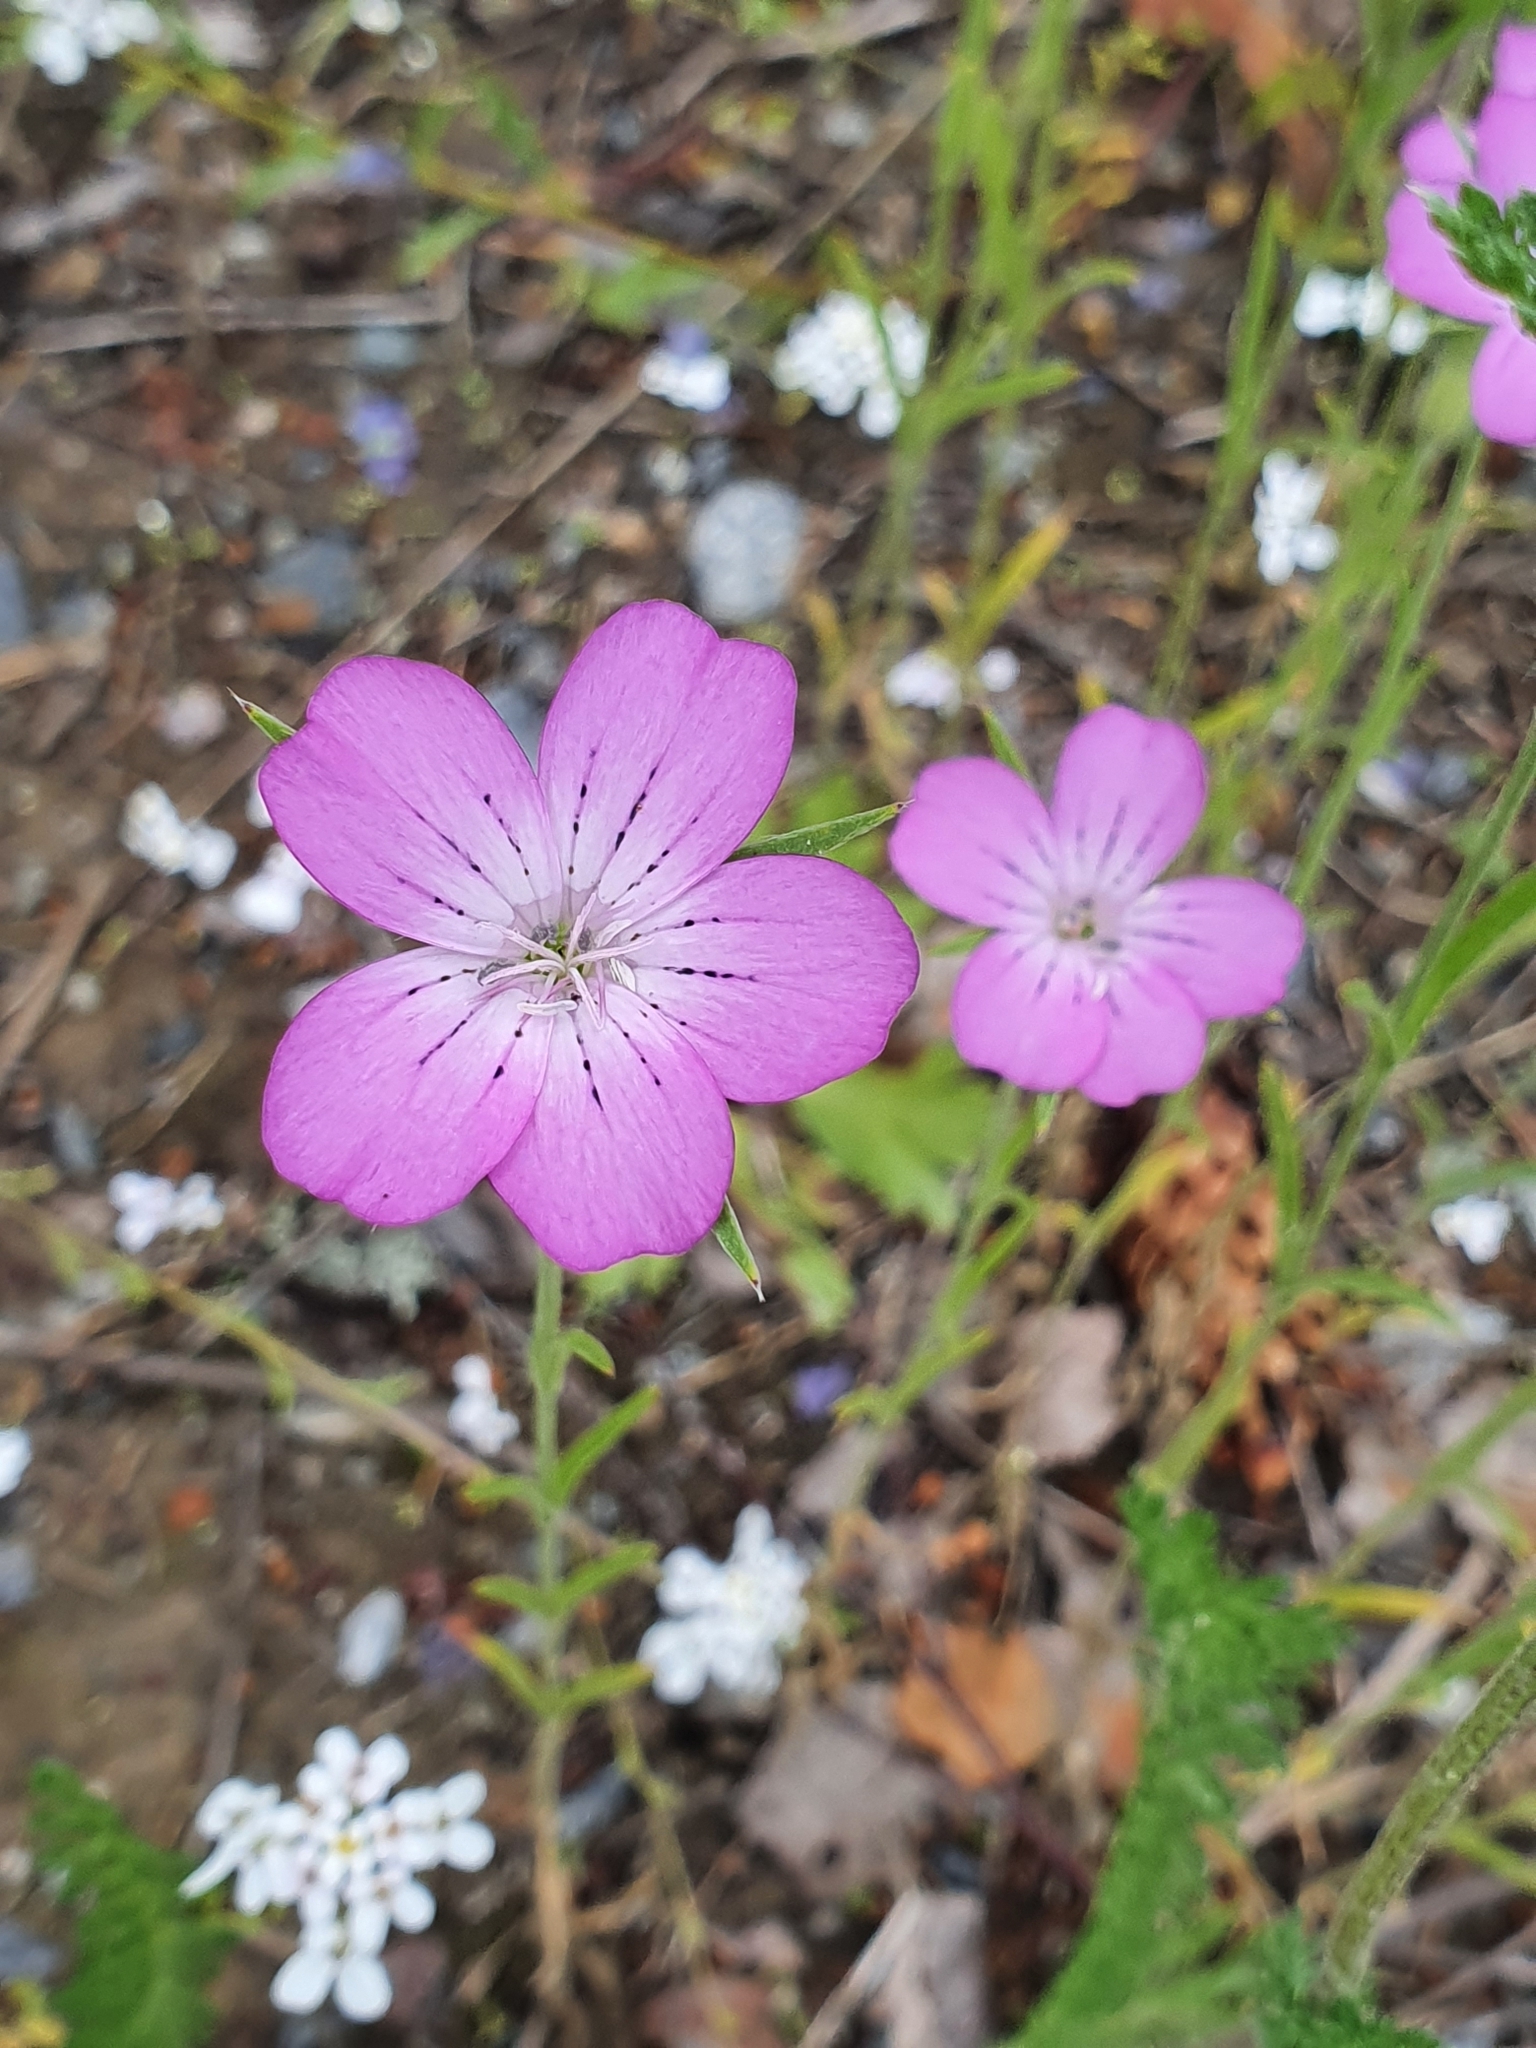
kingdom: Plantae
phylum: Tracheophyta
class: Magnoliopsida
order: Caryophyllales
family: Caryophyllaceae
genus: Agrostemma
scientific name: Agrostemma githago
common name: Common corncockle
